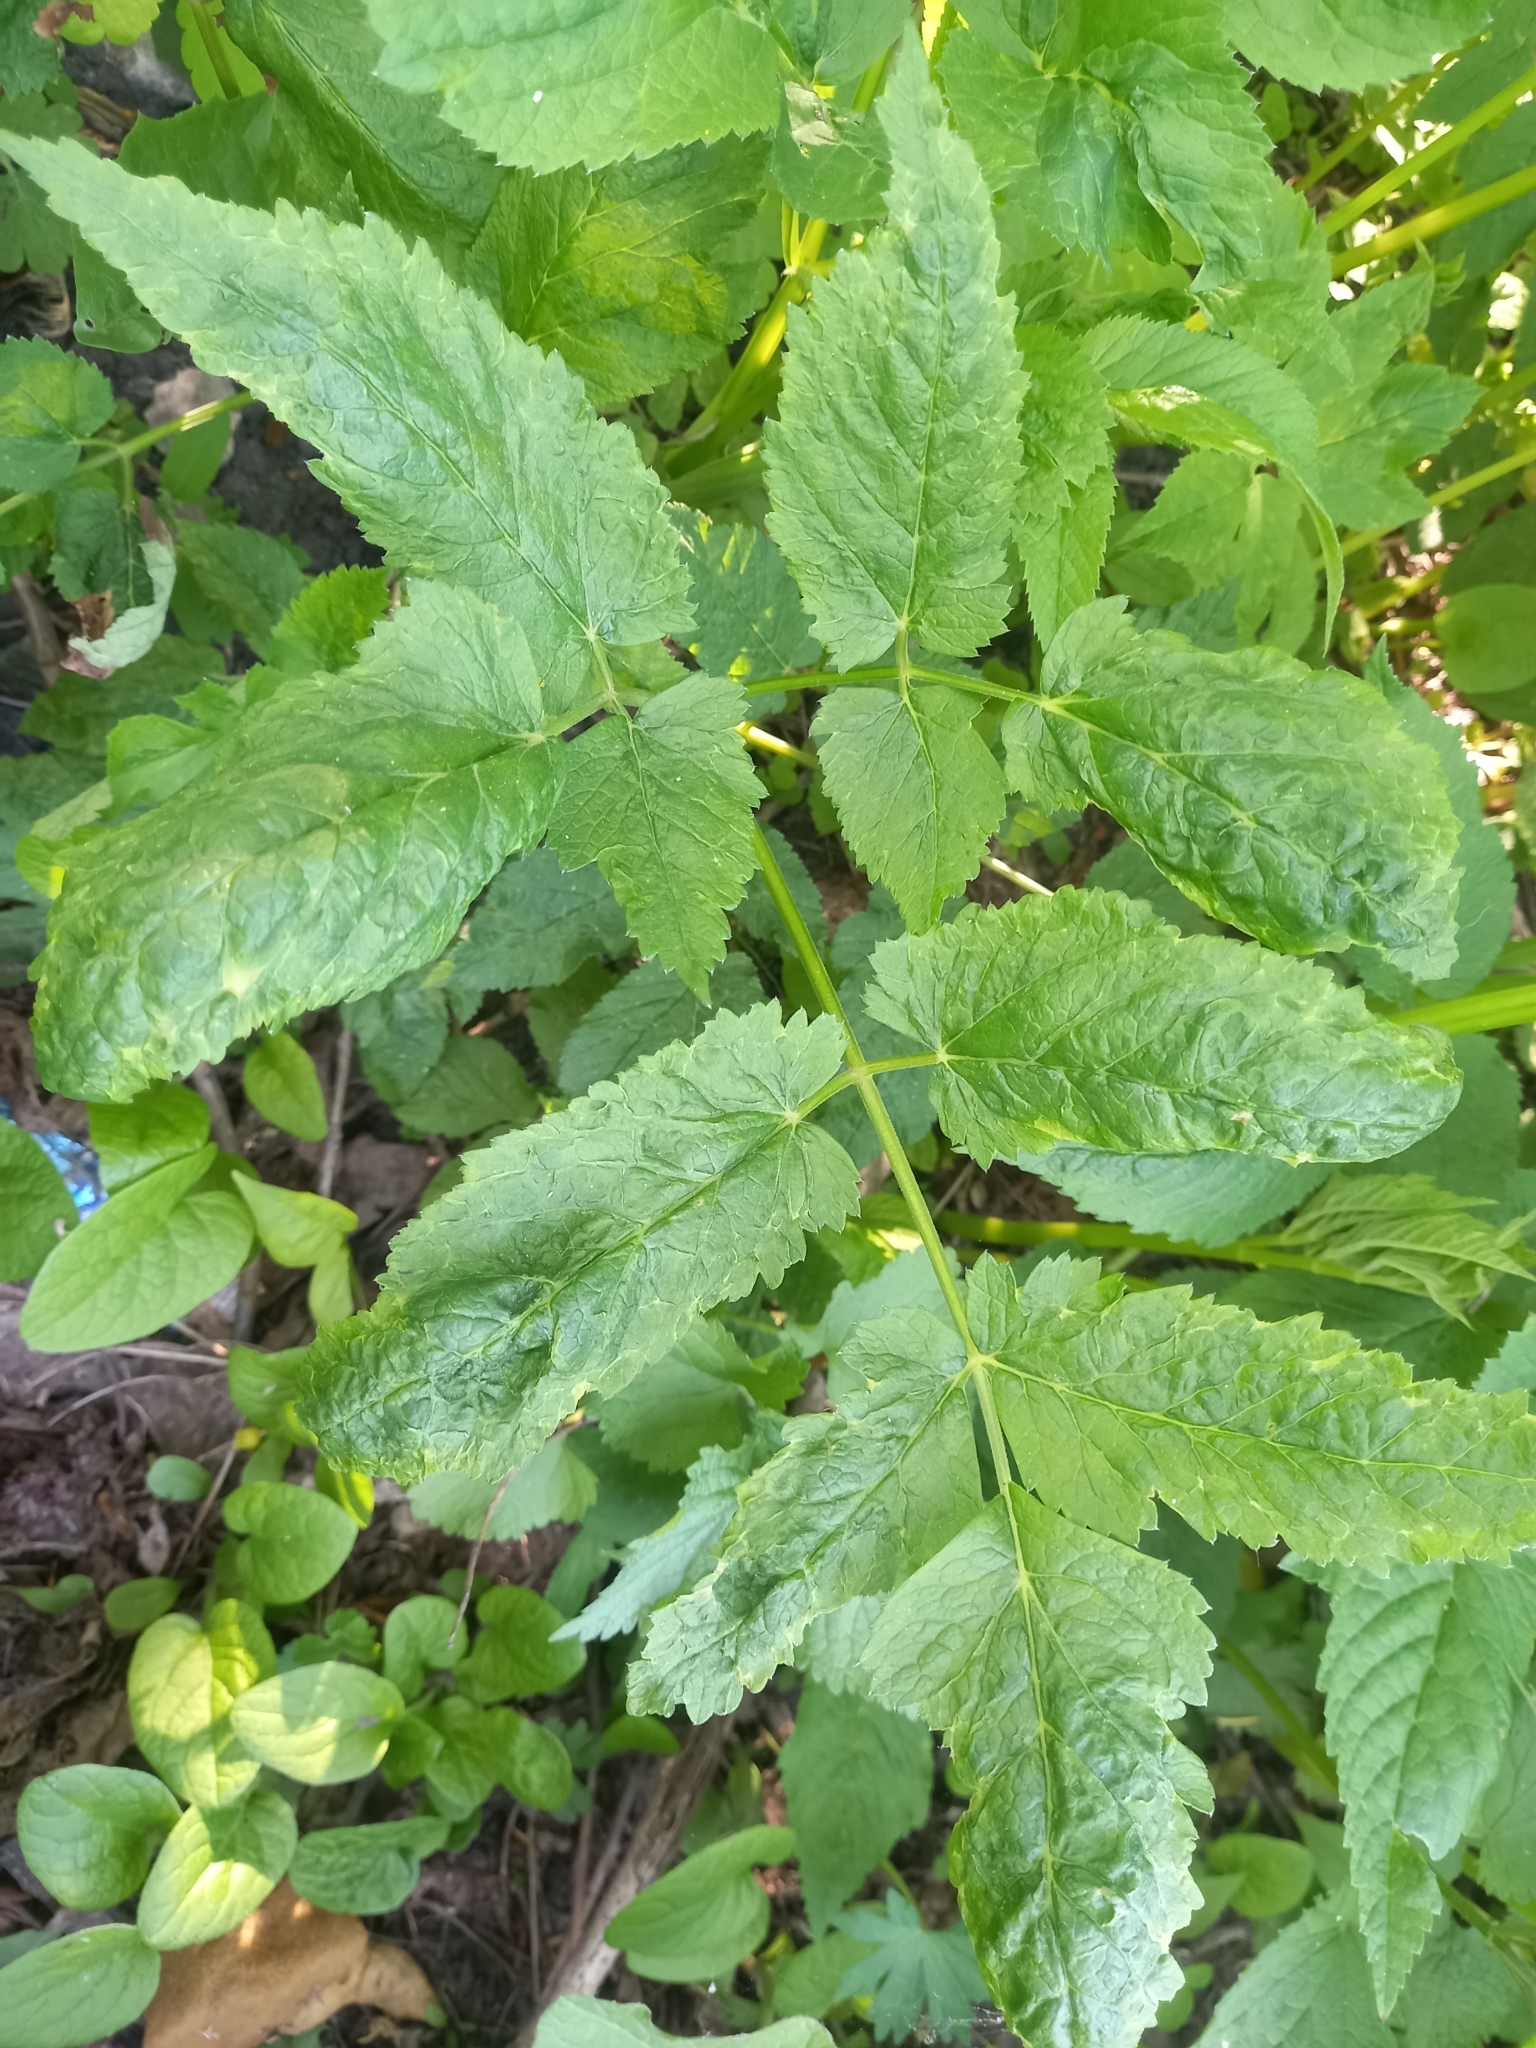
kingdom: Plantae
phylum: Tracheophyta
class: Magnoliopsida
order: Apiales
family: Apiaceae
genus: Aegopodium
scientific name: Aegopodium podagraria
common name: Ground-elder
